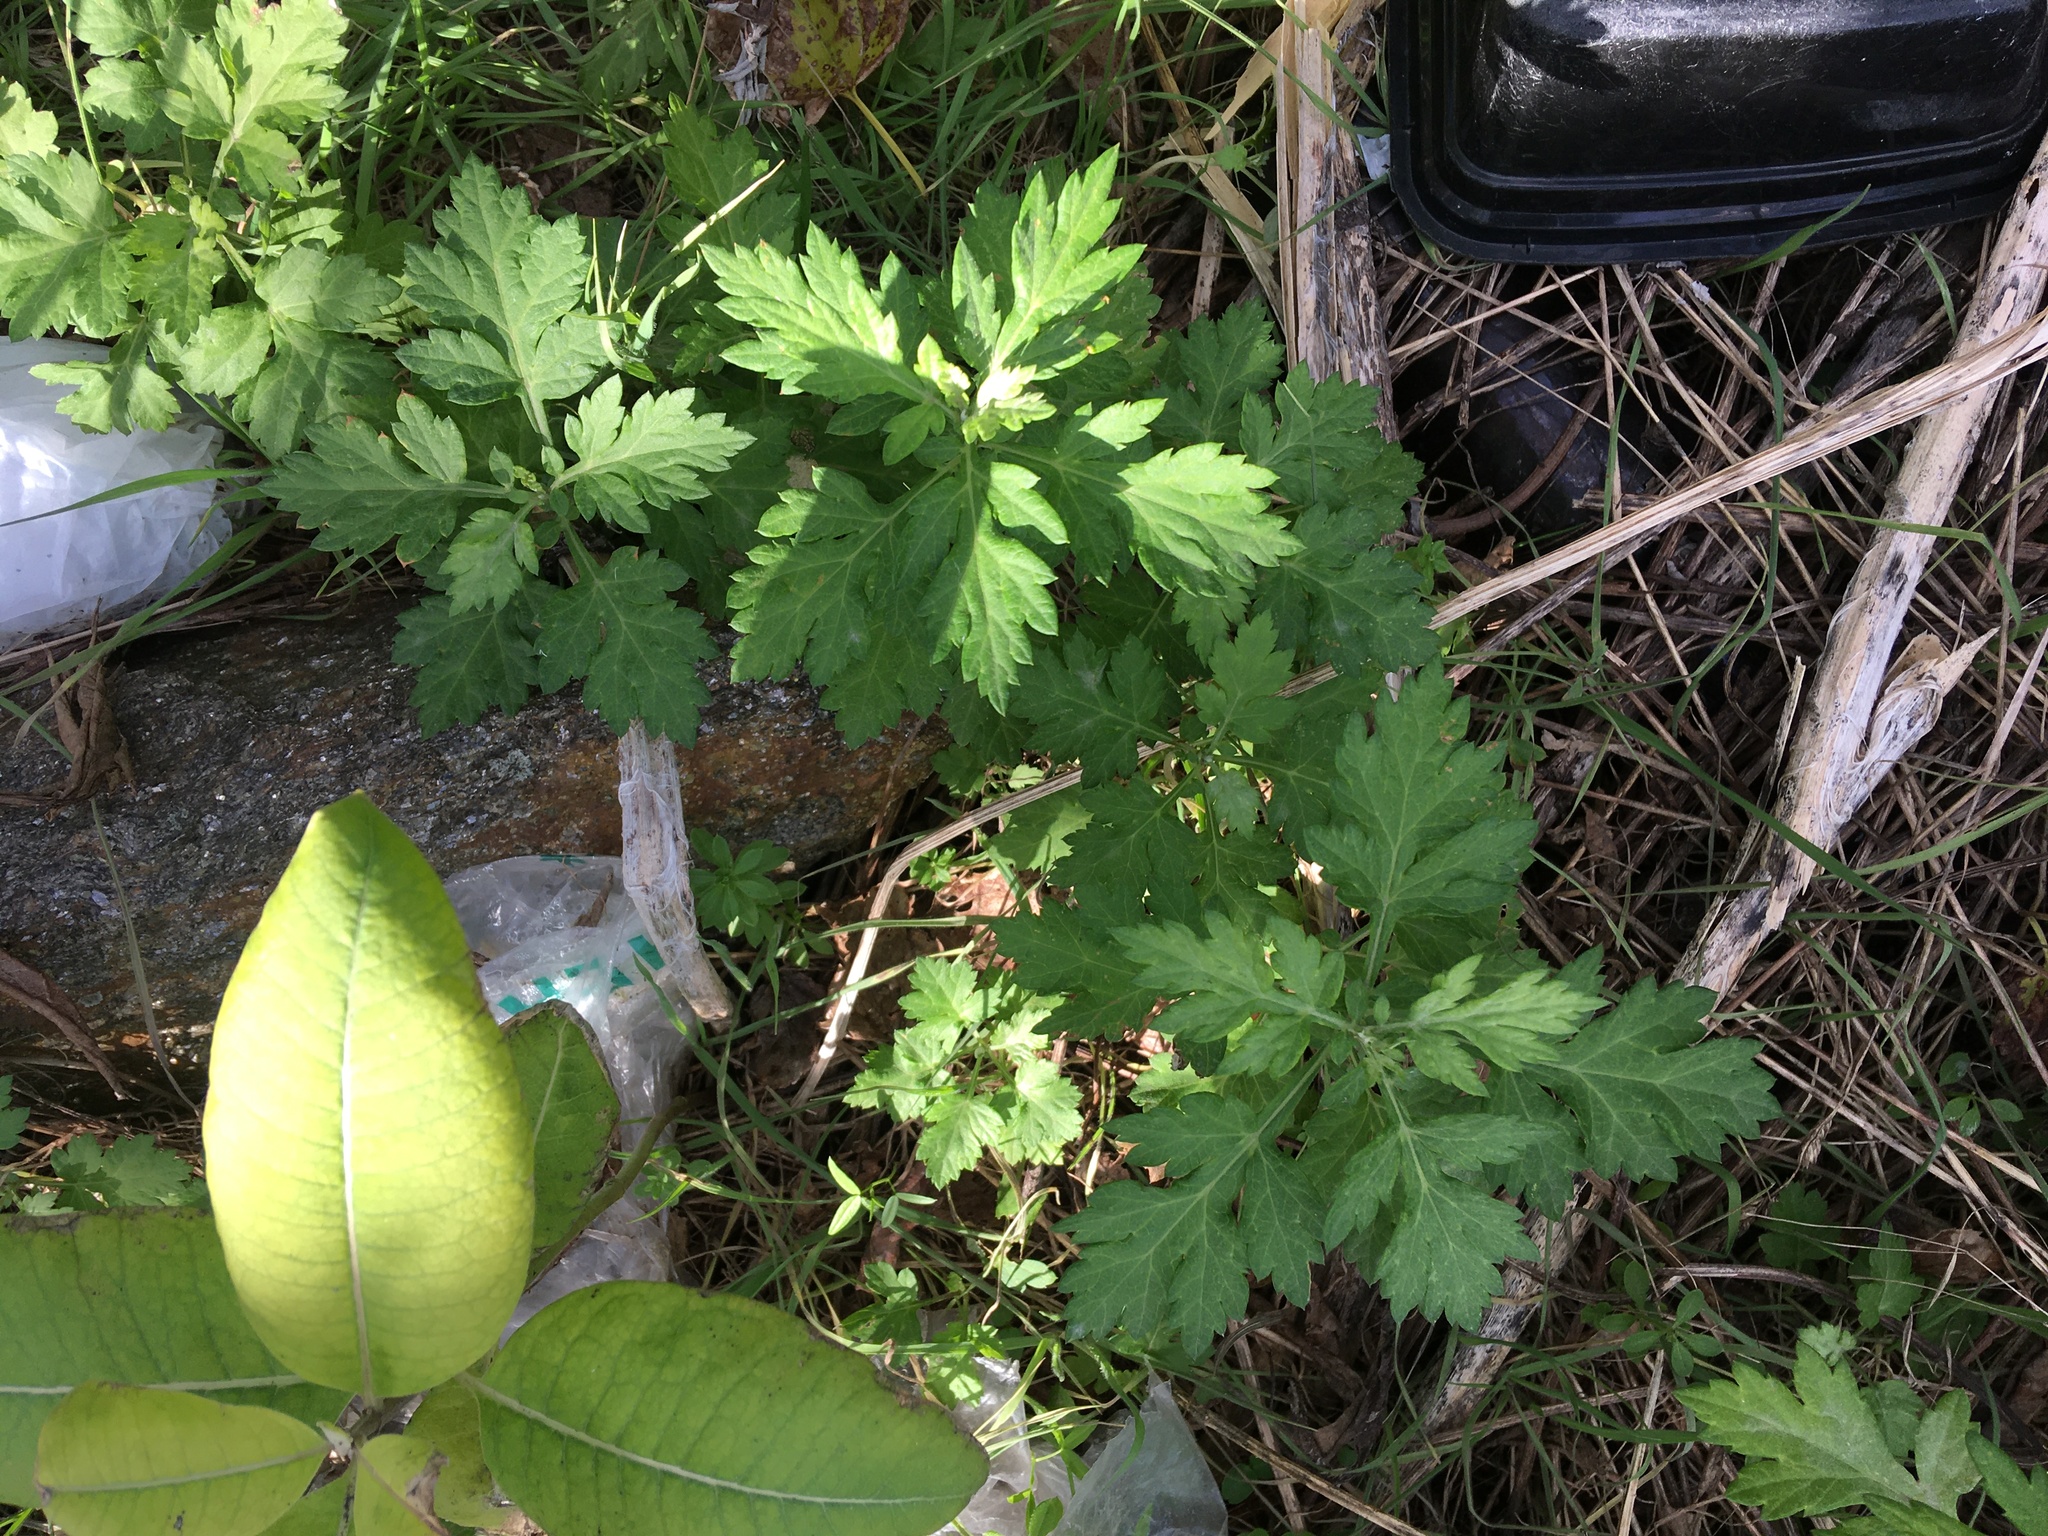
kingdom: Plantae
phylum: Tracheophyta
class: Magnoliopsida
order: Asterales
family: Asteraceae
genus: Artemisia
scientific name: Artemisia vulgaris
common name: Mugwort
